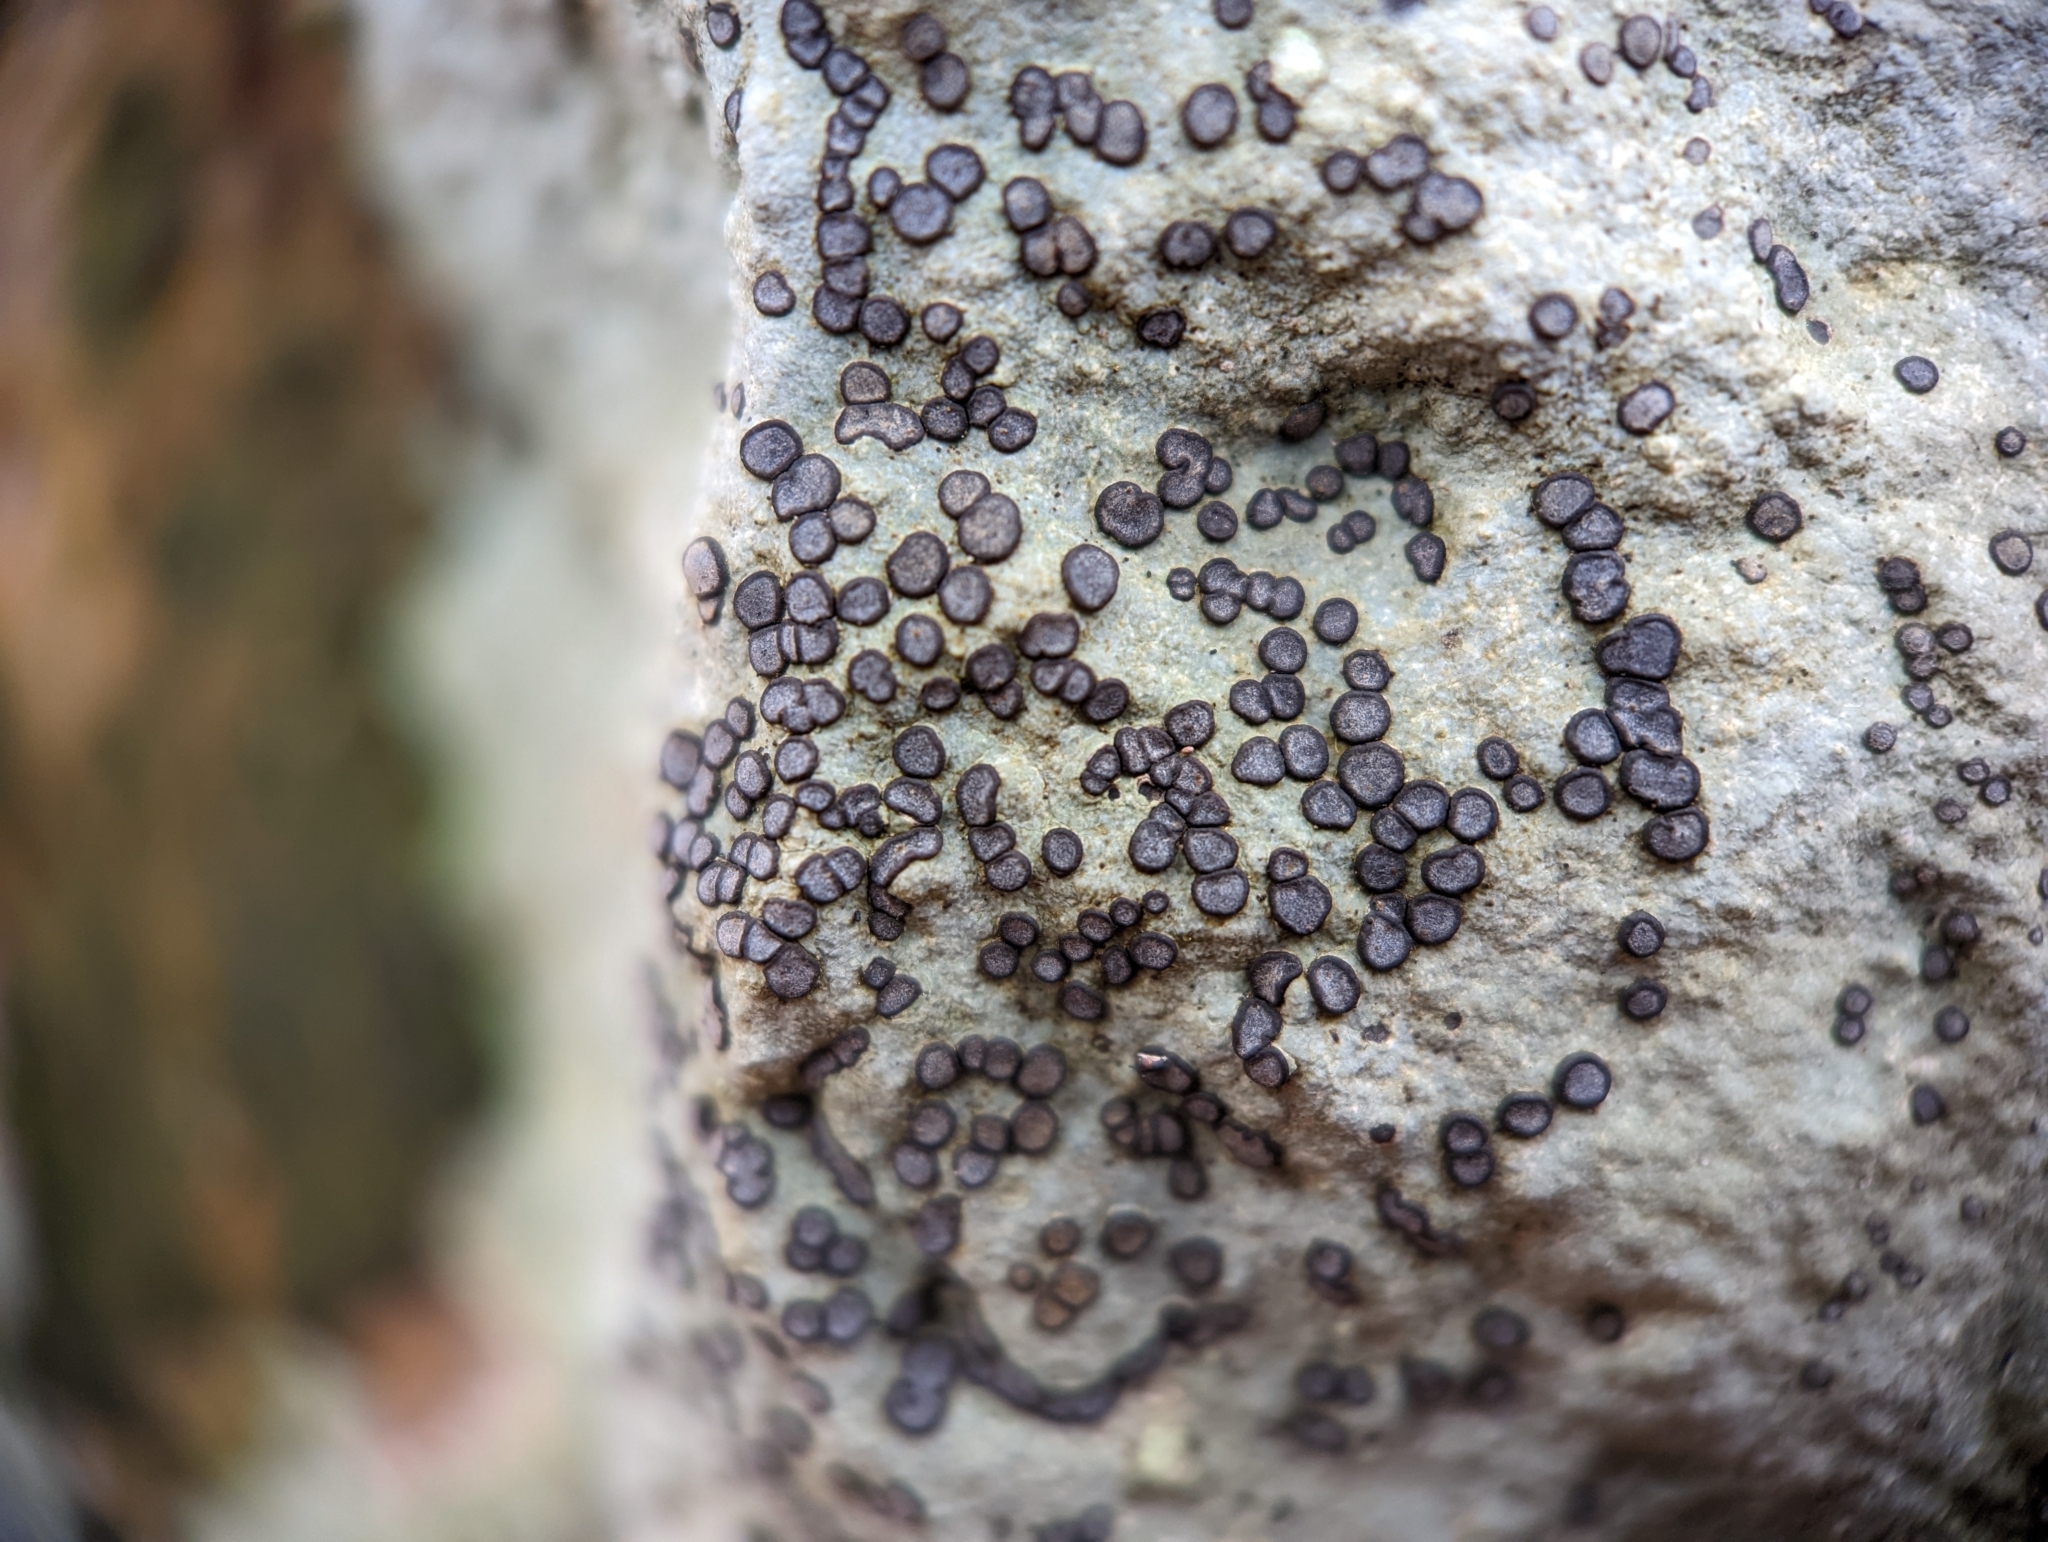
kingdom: Fungi
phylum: Ascomycota
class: Lecanoromycetes
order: Lecideales
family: Lecideaceae
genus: Porpidia
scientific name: Porpidia albocaerulescens
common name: Smokey-eyed boulder lichen
